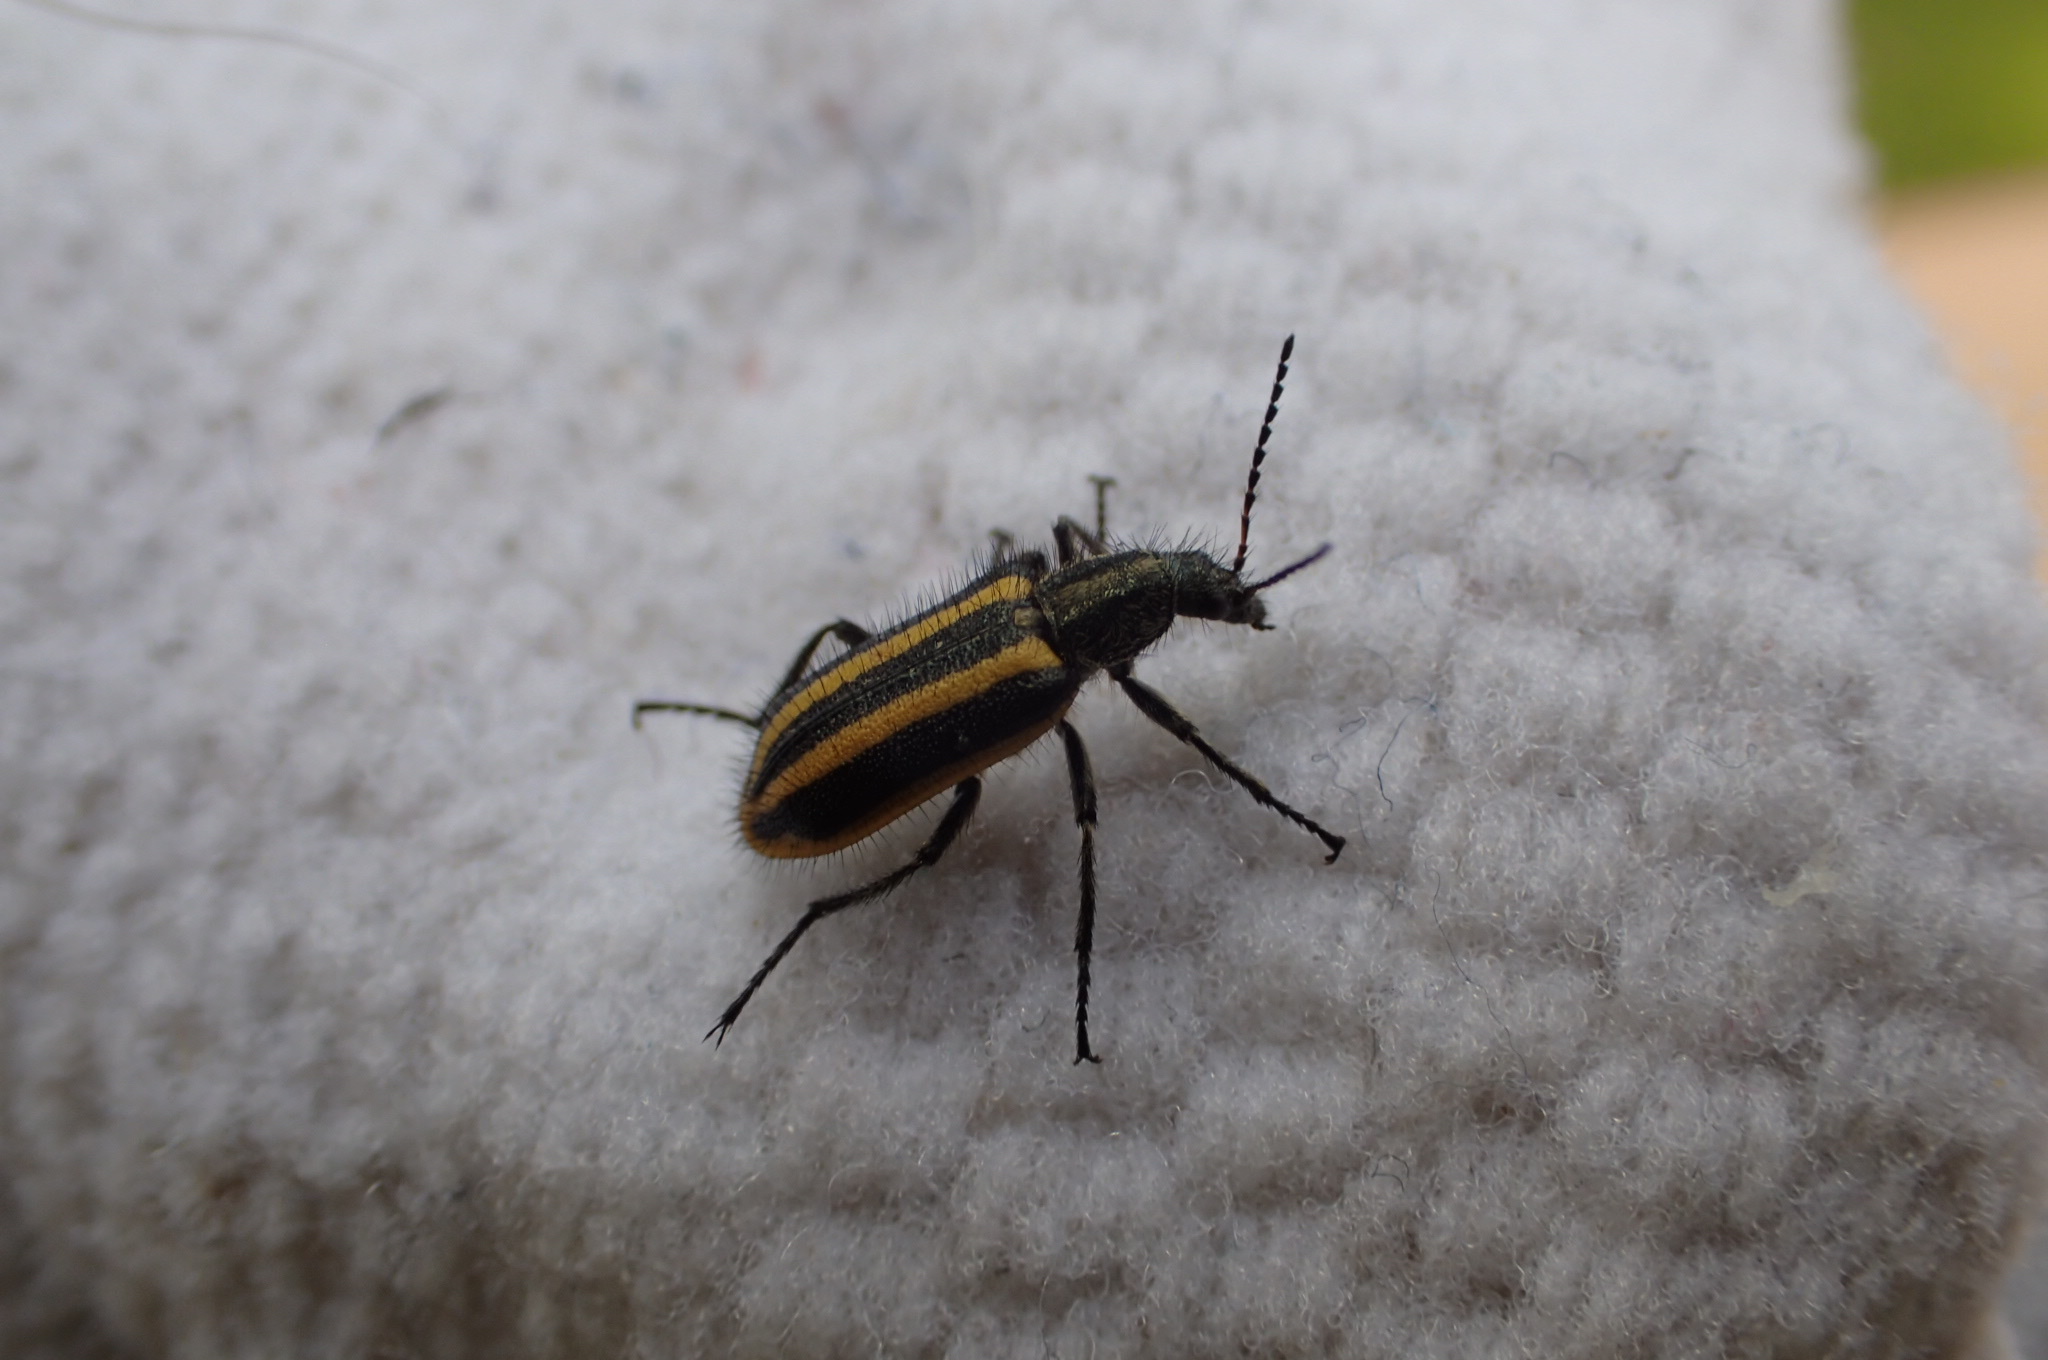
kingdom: Animalia
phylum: Arthropoda
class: Insecta
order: Coleoptera
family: Melyridae
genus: Astylus
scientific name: Astylus vittaticollis
